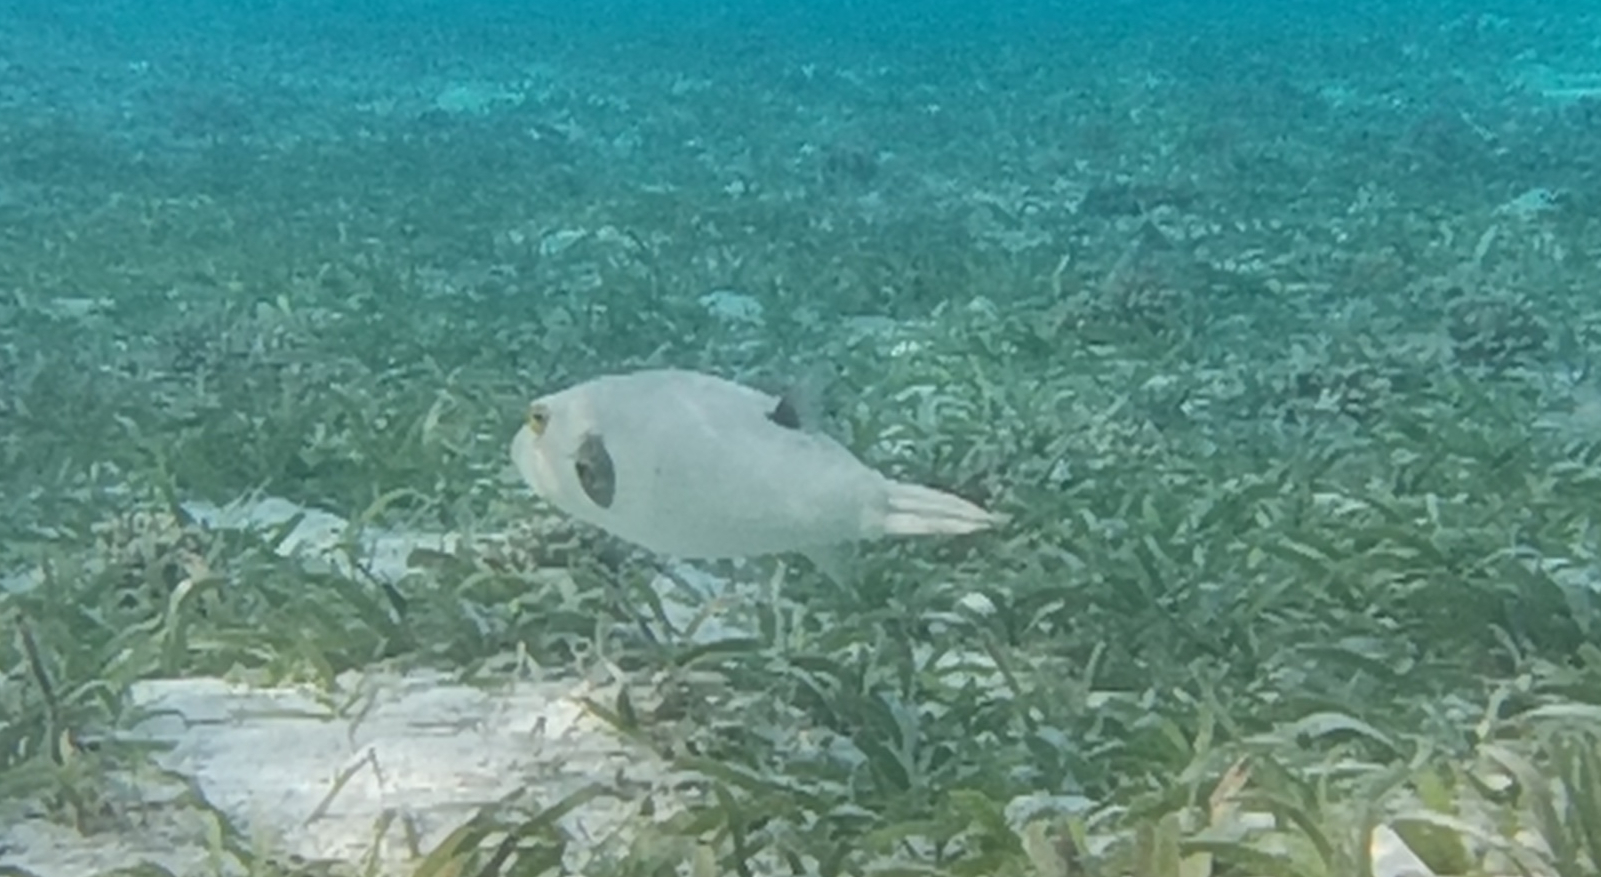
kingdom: Animalia
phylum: Chordata
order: Tetraodontiformes
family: Tetraodontidae
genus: Arothron
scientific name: Arothron immaculatus
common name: Blackedged blaasop
